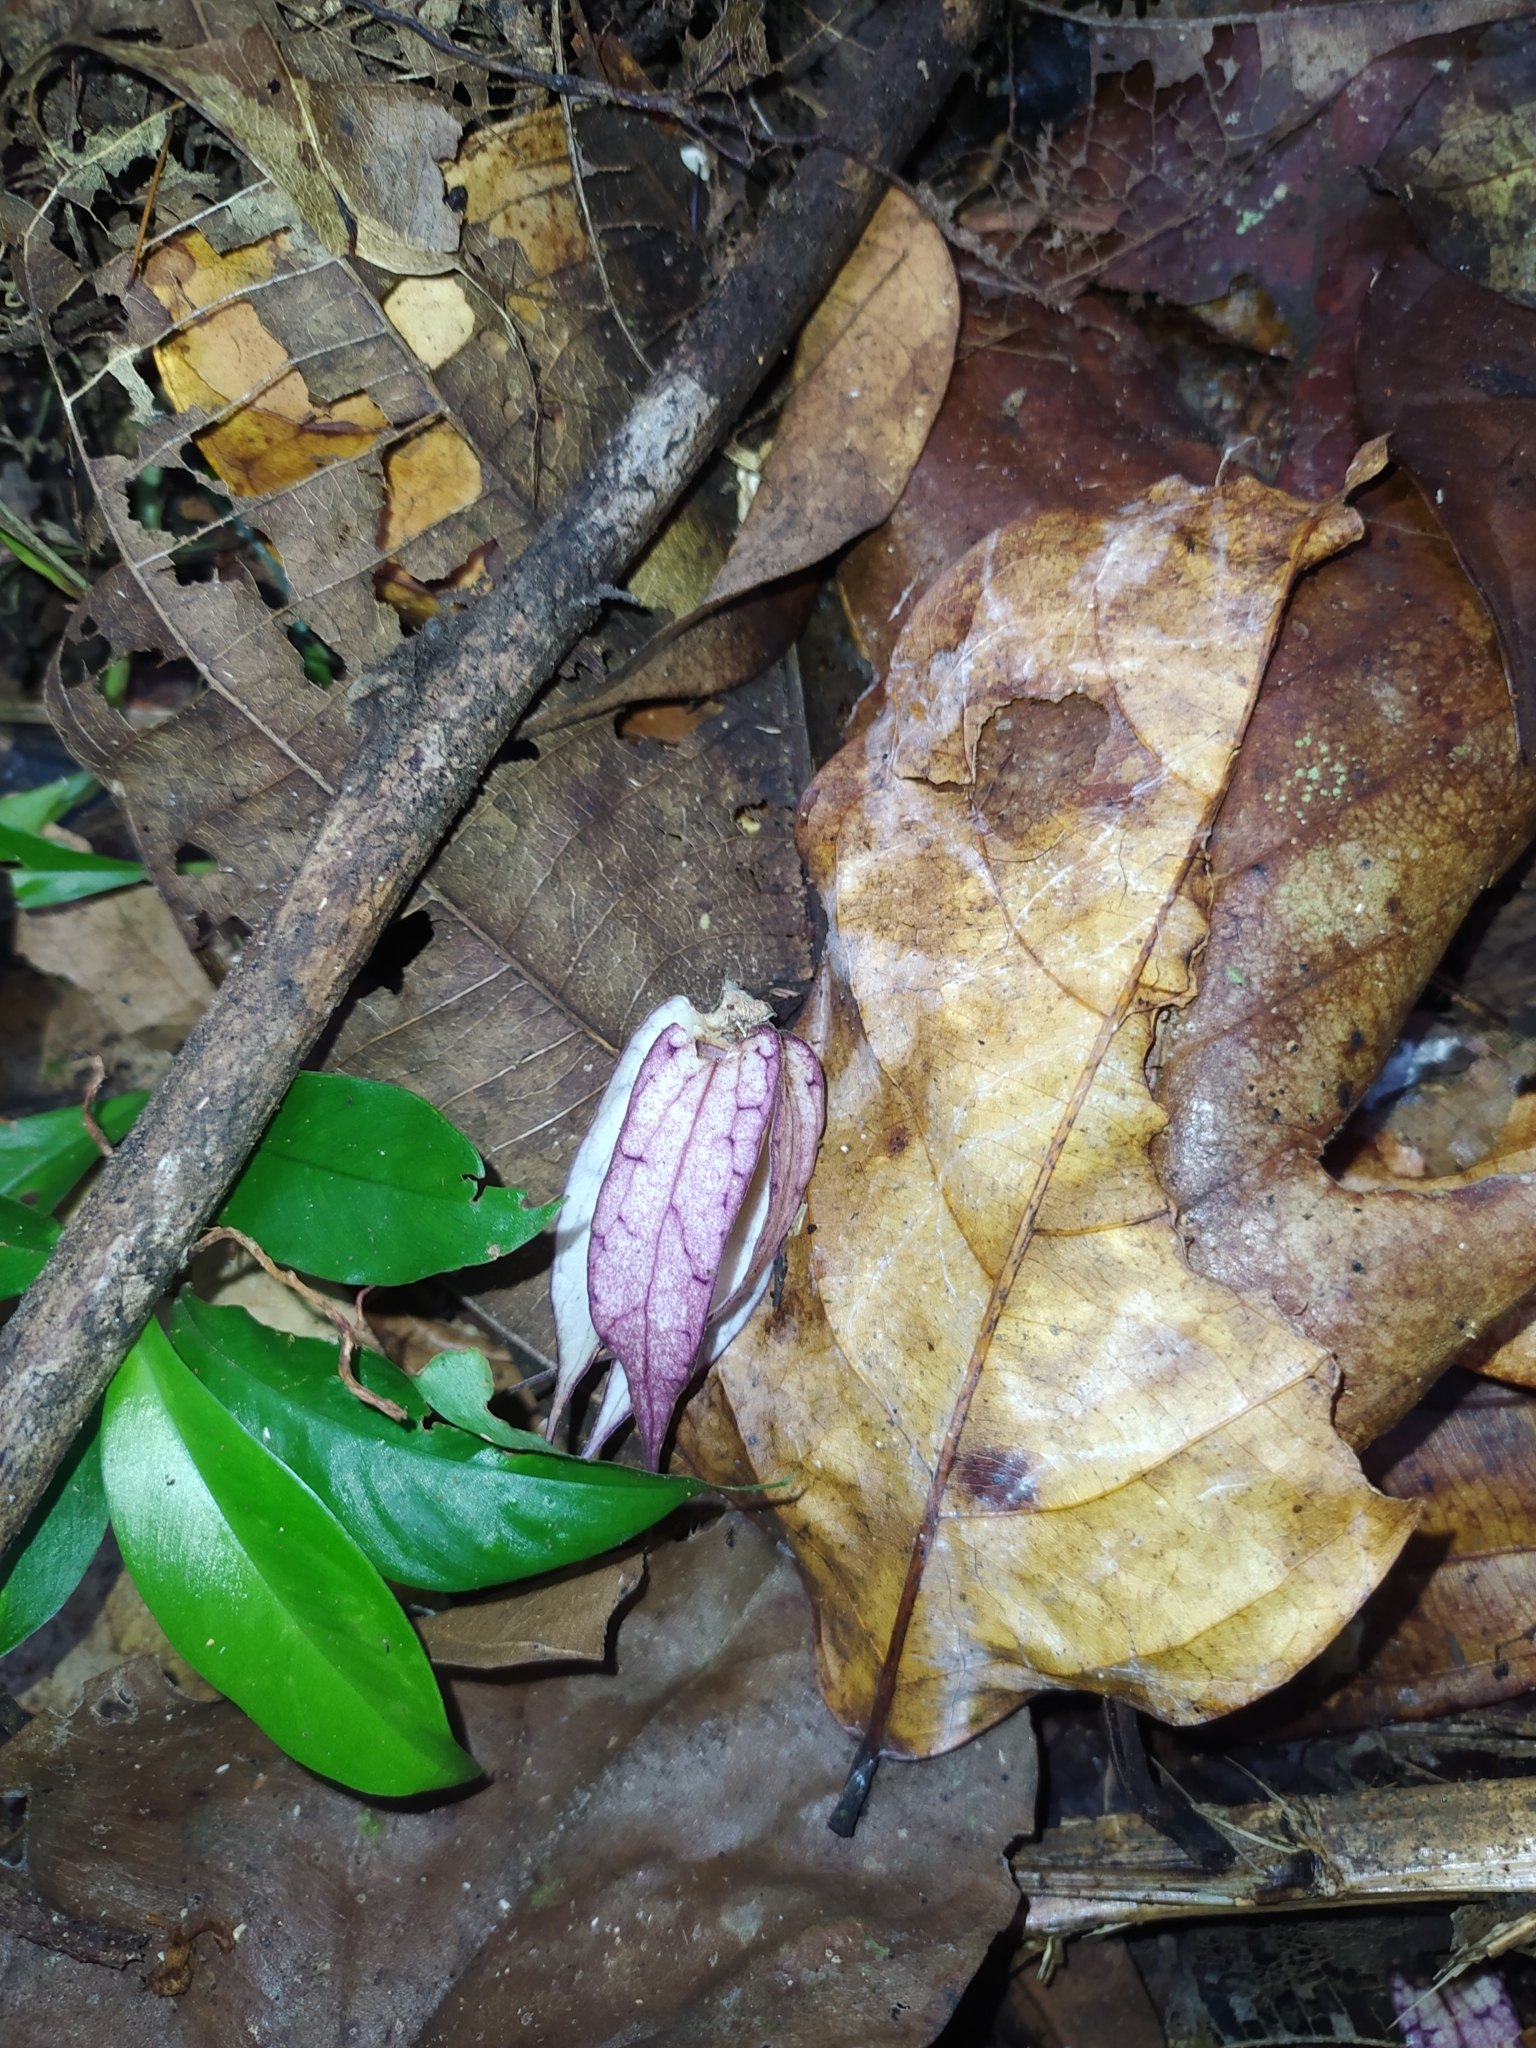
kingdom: Plantae
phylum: Tracheophyta
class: Magnoliopsida
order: Solanales
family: Solanaceae
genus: Markea
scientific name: Markea longiflora
